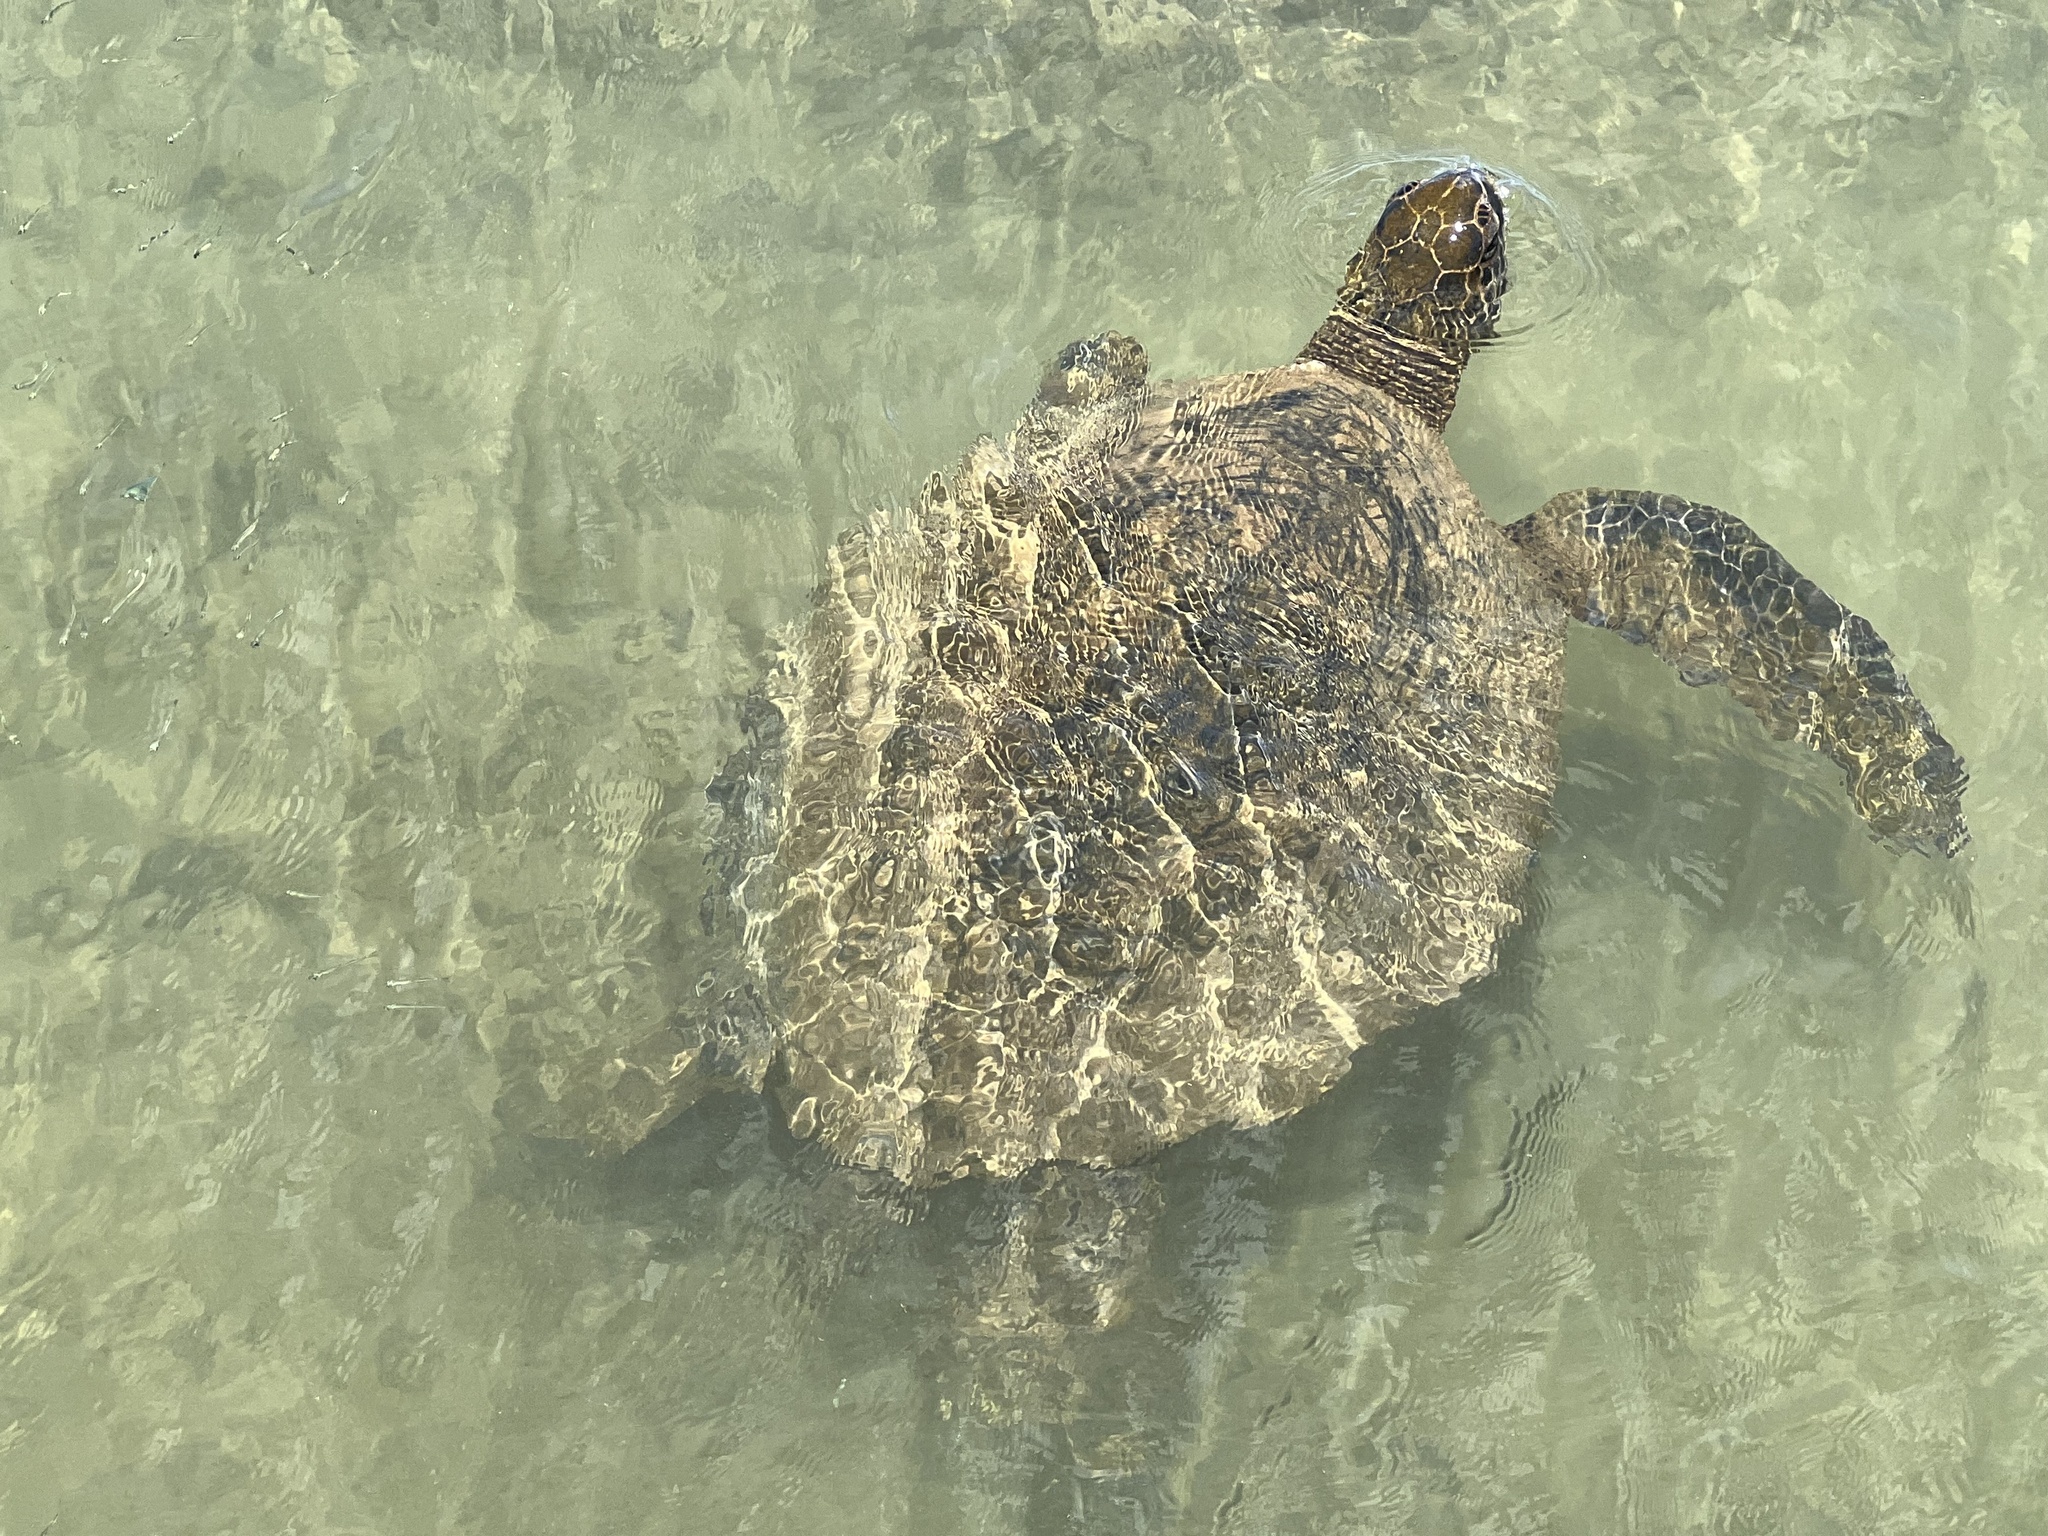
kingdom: Animalia
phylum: Chordata
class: Testudines
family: Cheloniidae
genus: Chelonia
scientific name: Chelonia mydas
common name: Green turtle
